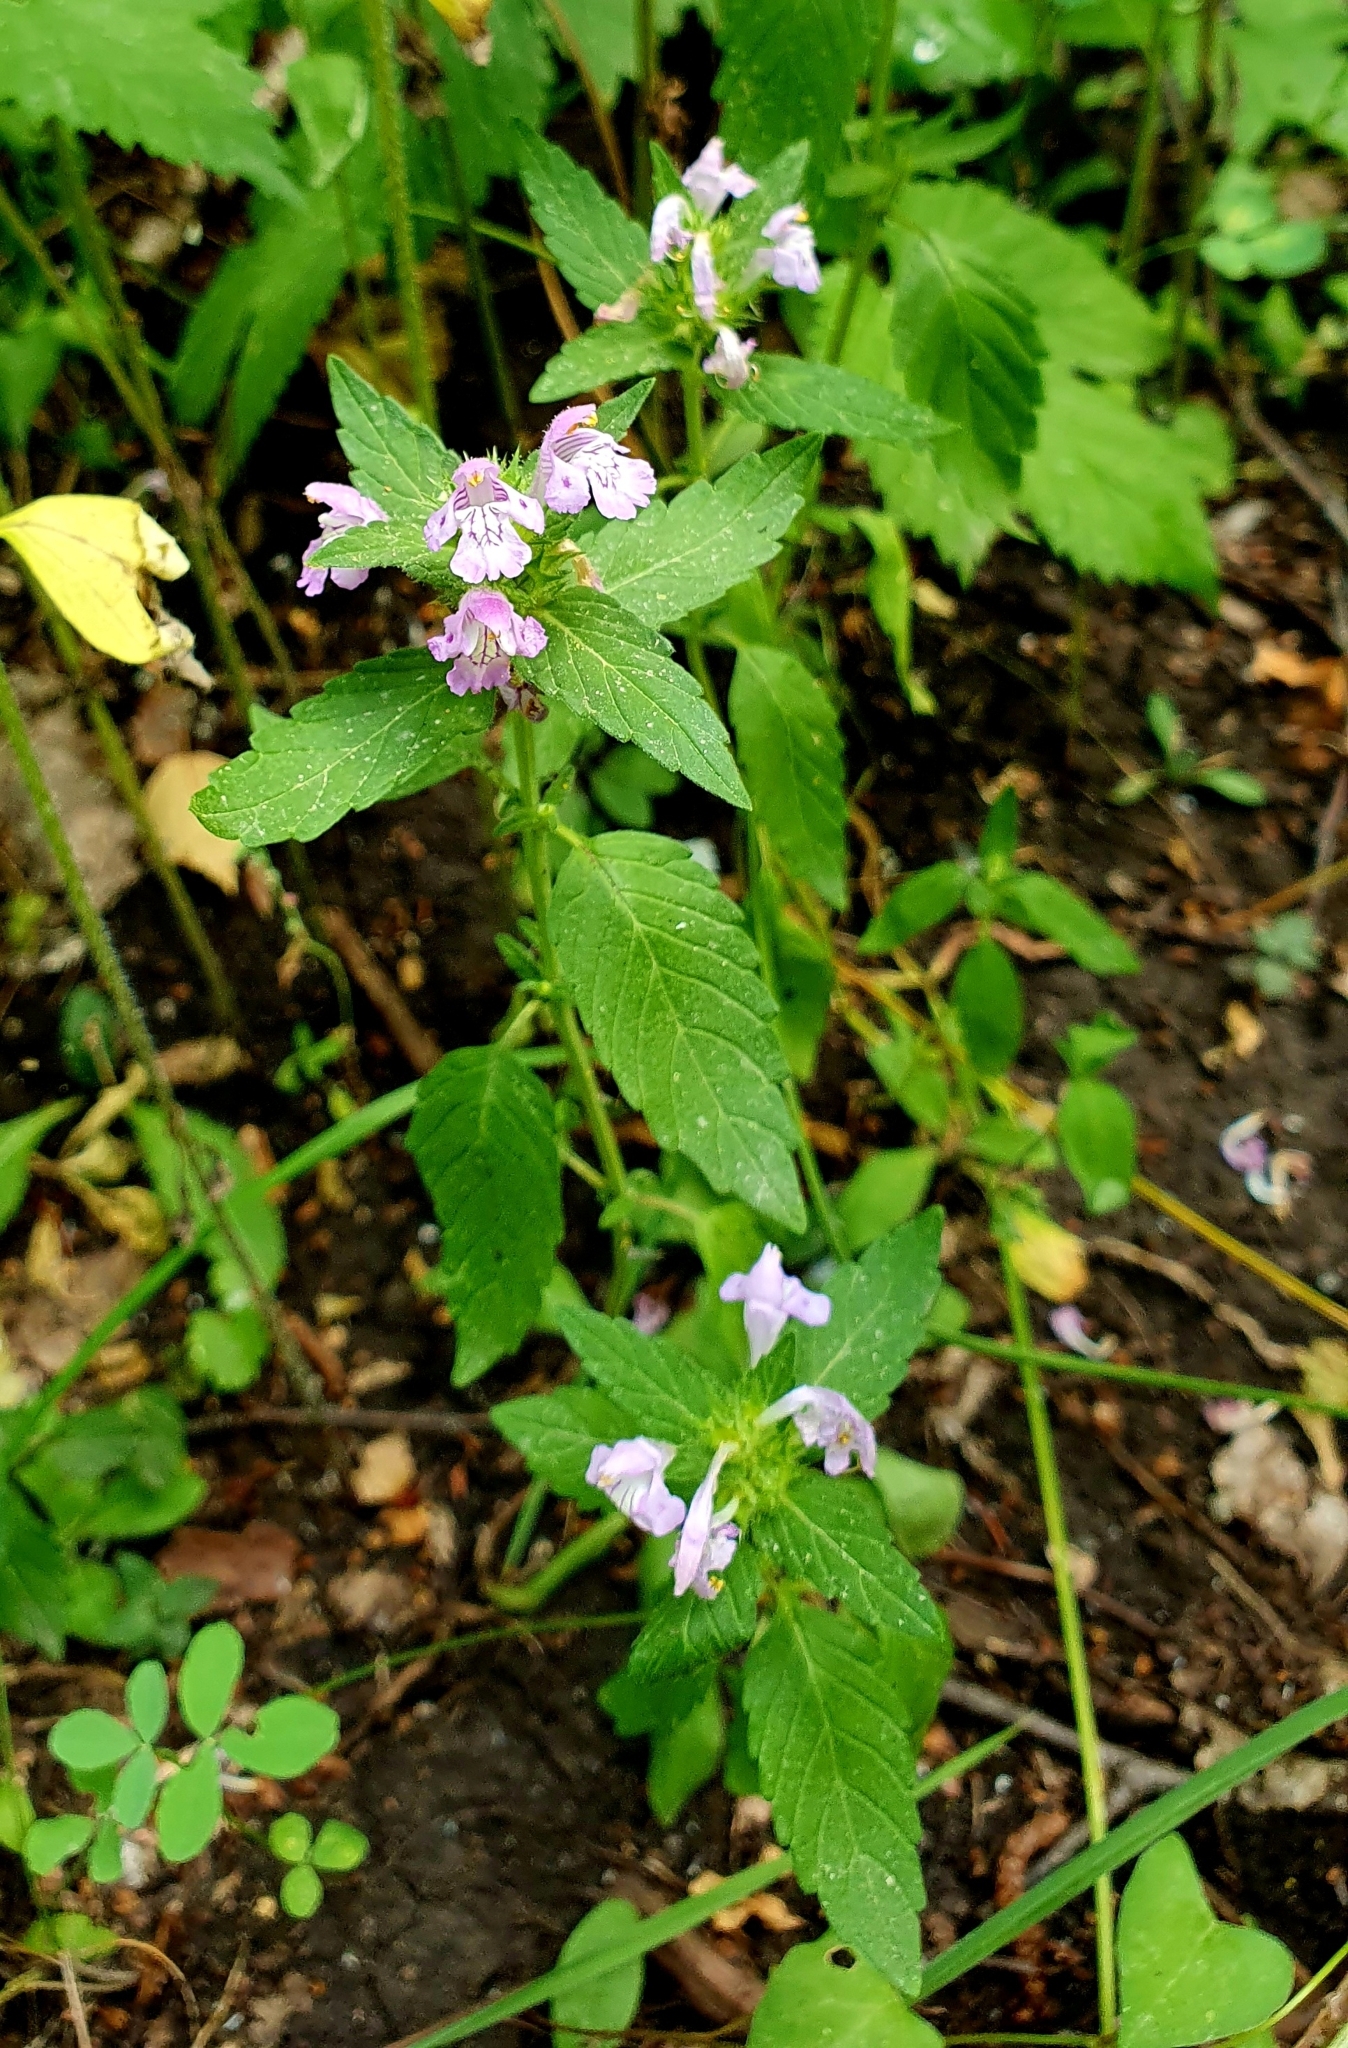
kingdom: Plantae
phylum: Tracheophyta
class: Magnoliopsida
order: Lamiales
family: Lamiaceae
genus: Galeopsis
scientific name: Galeopsis ladanum
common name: Broad-leaved hemp-nettle
